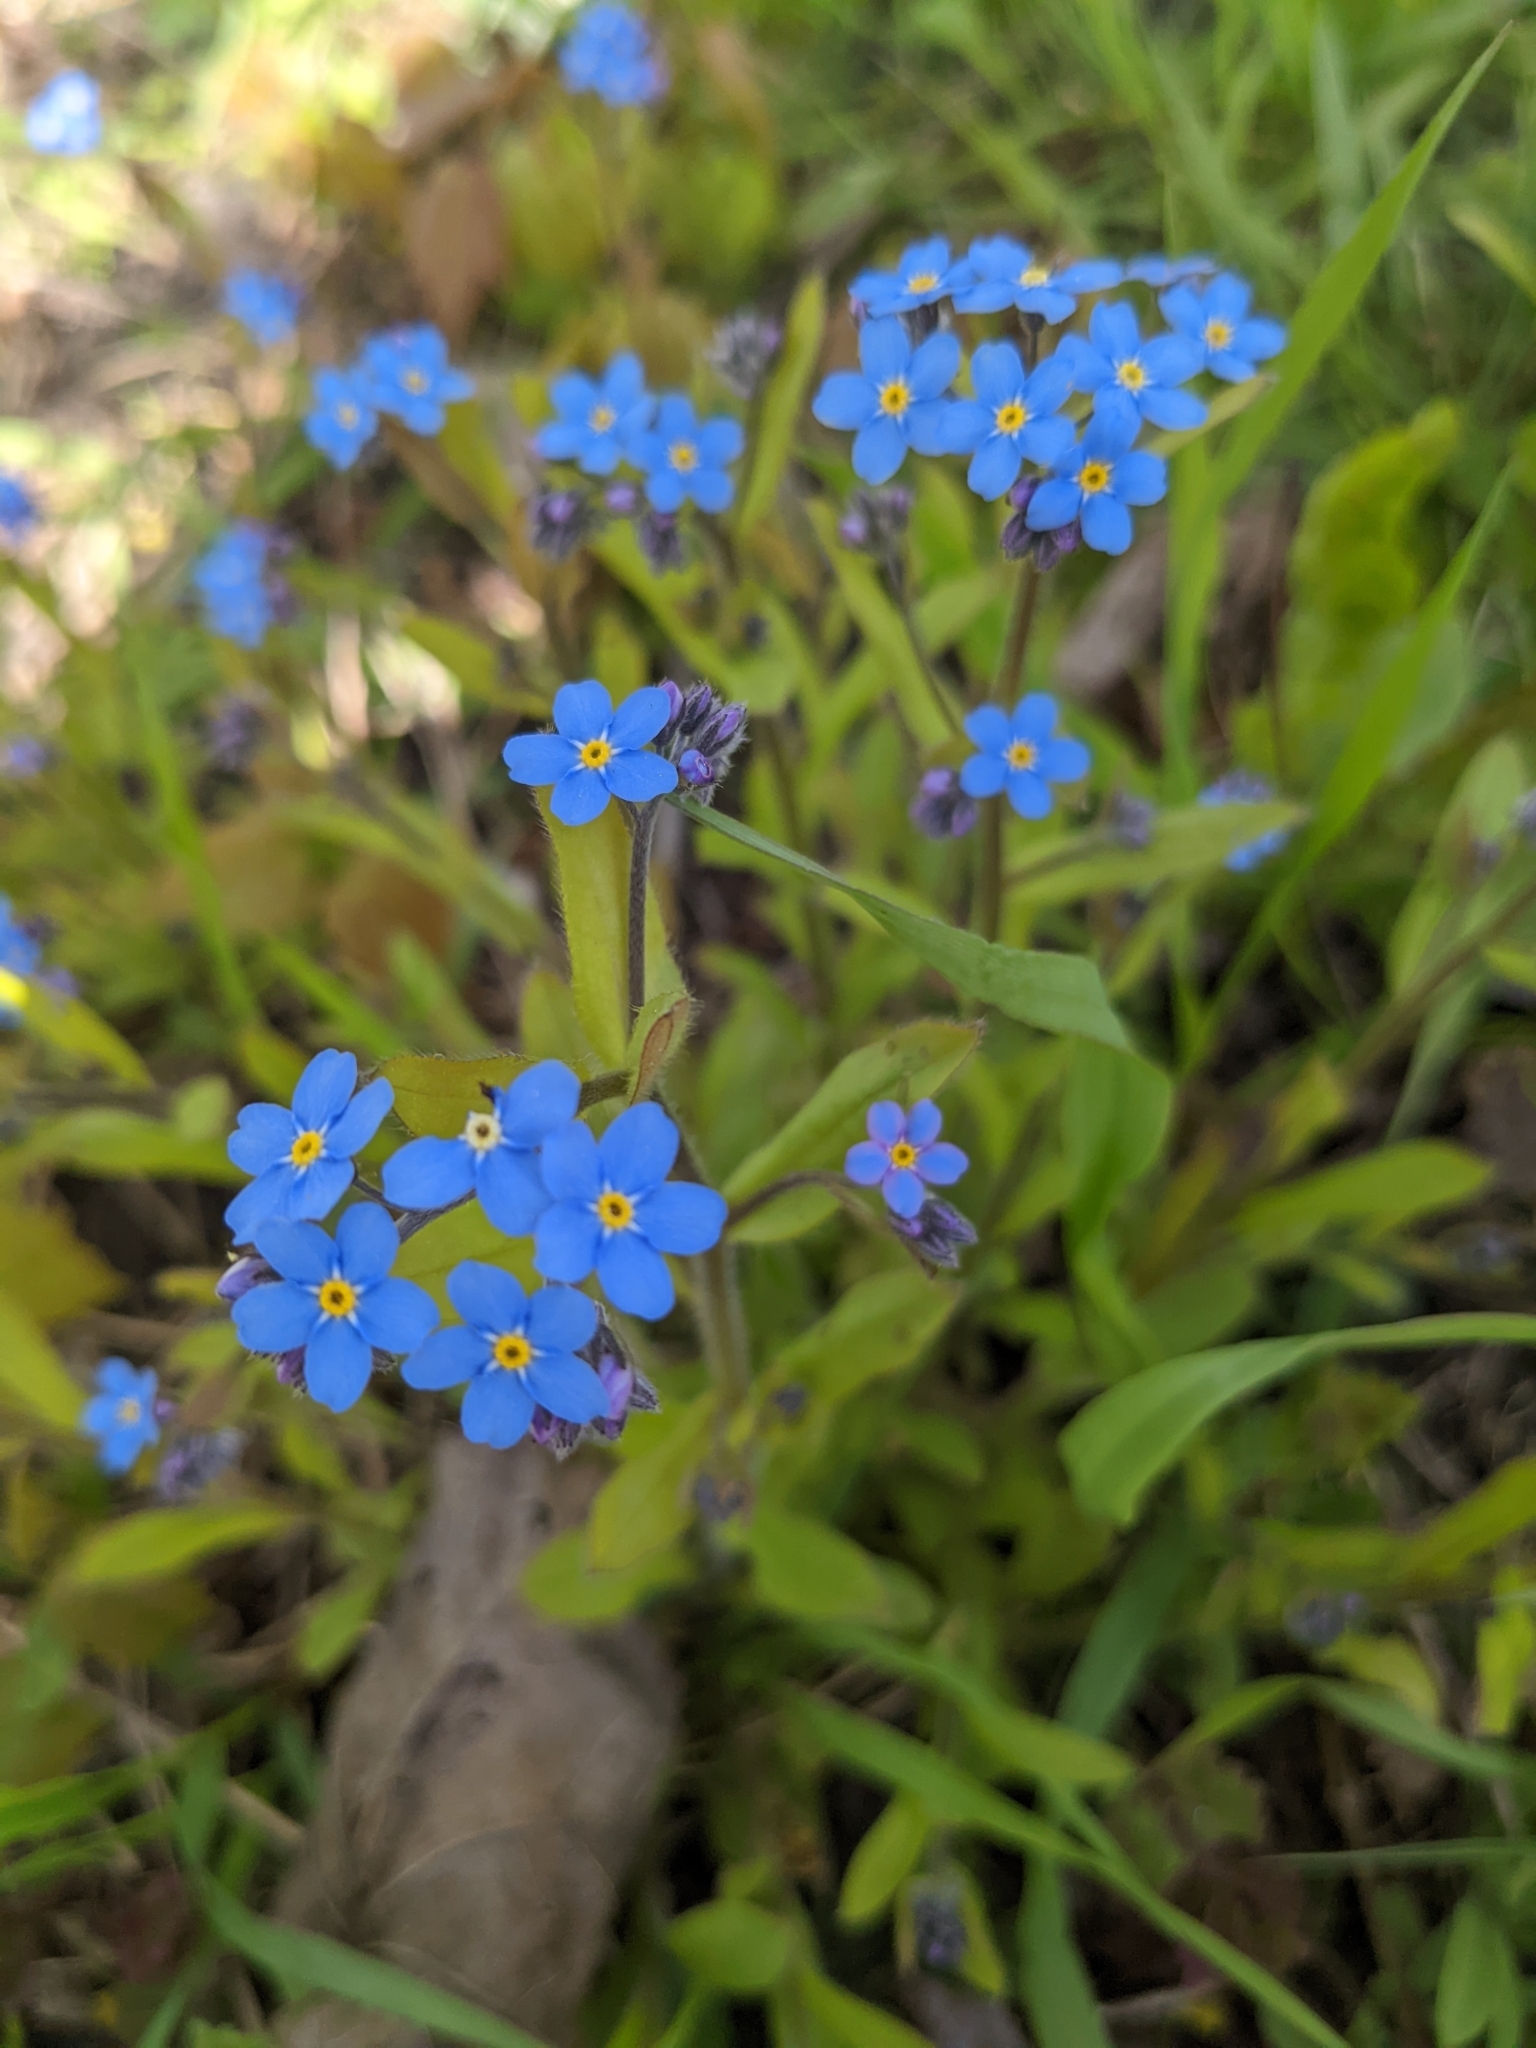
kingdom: Plantae
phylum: Tracheophyta
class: Magnoliopsida
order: Boraginales
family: Boraginaceae
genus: Myosotis
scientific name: Myosotis sylvatica
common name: Wood forget-me-not
